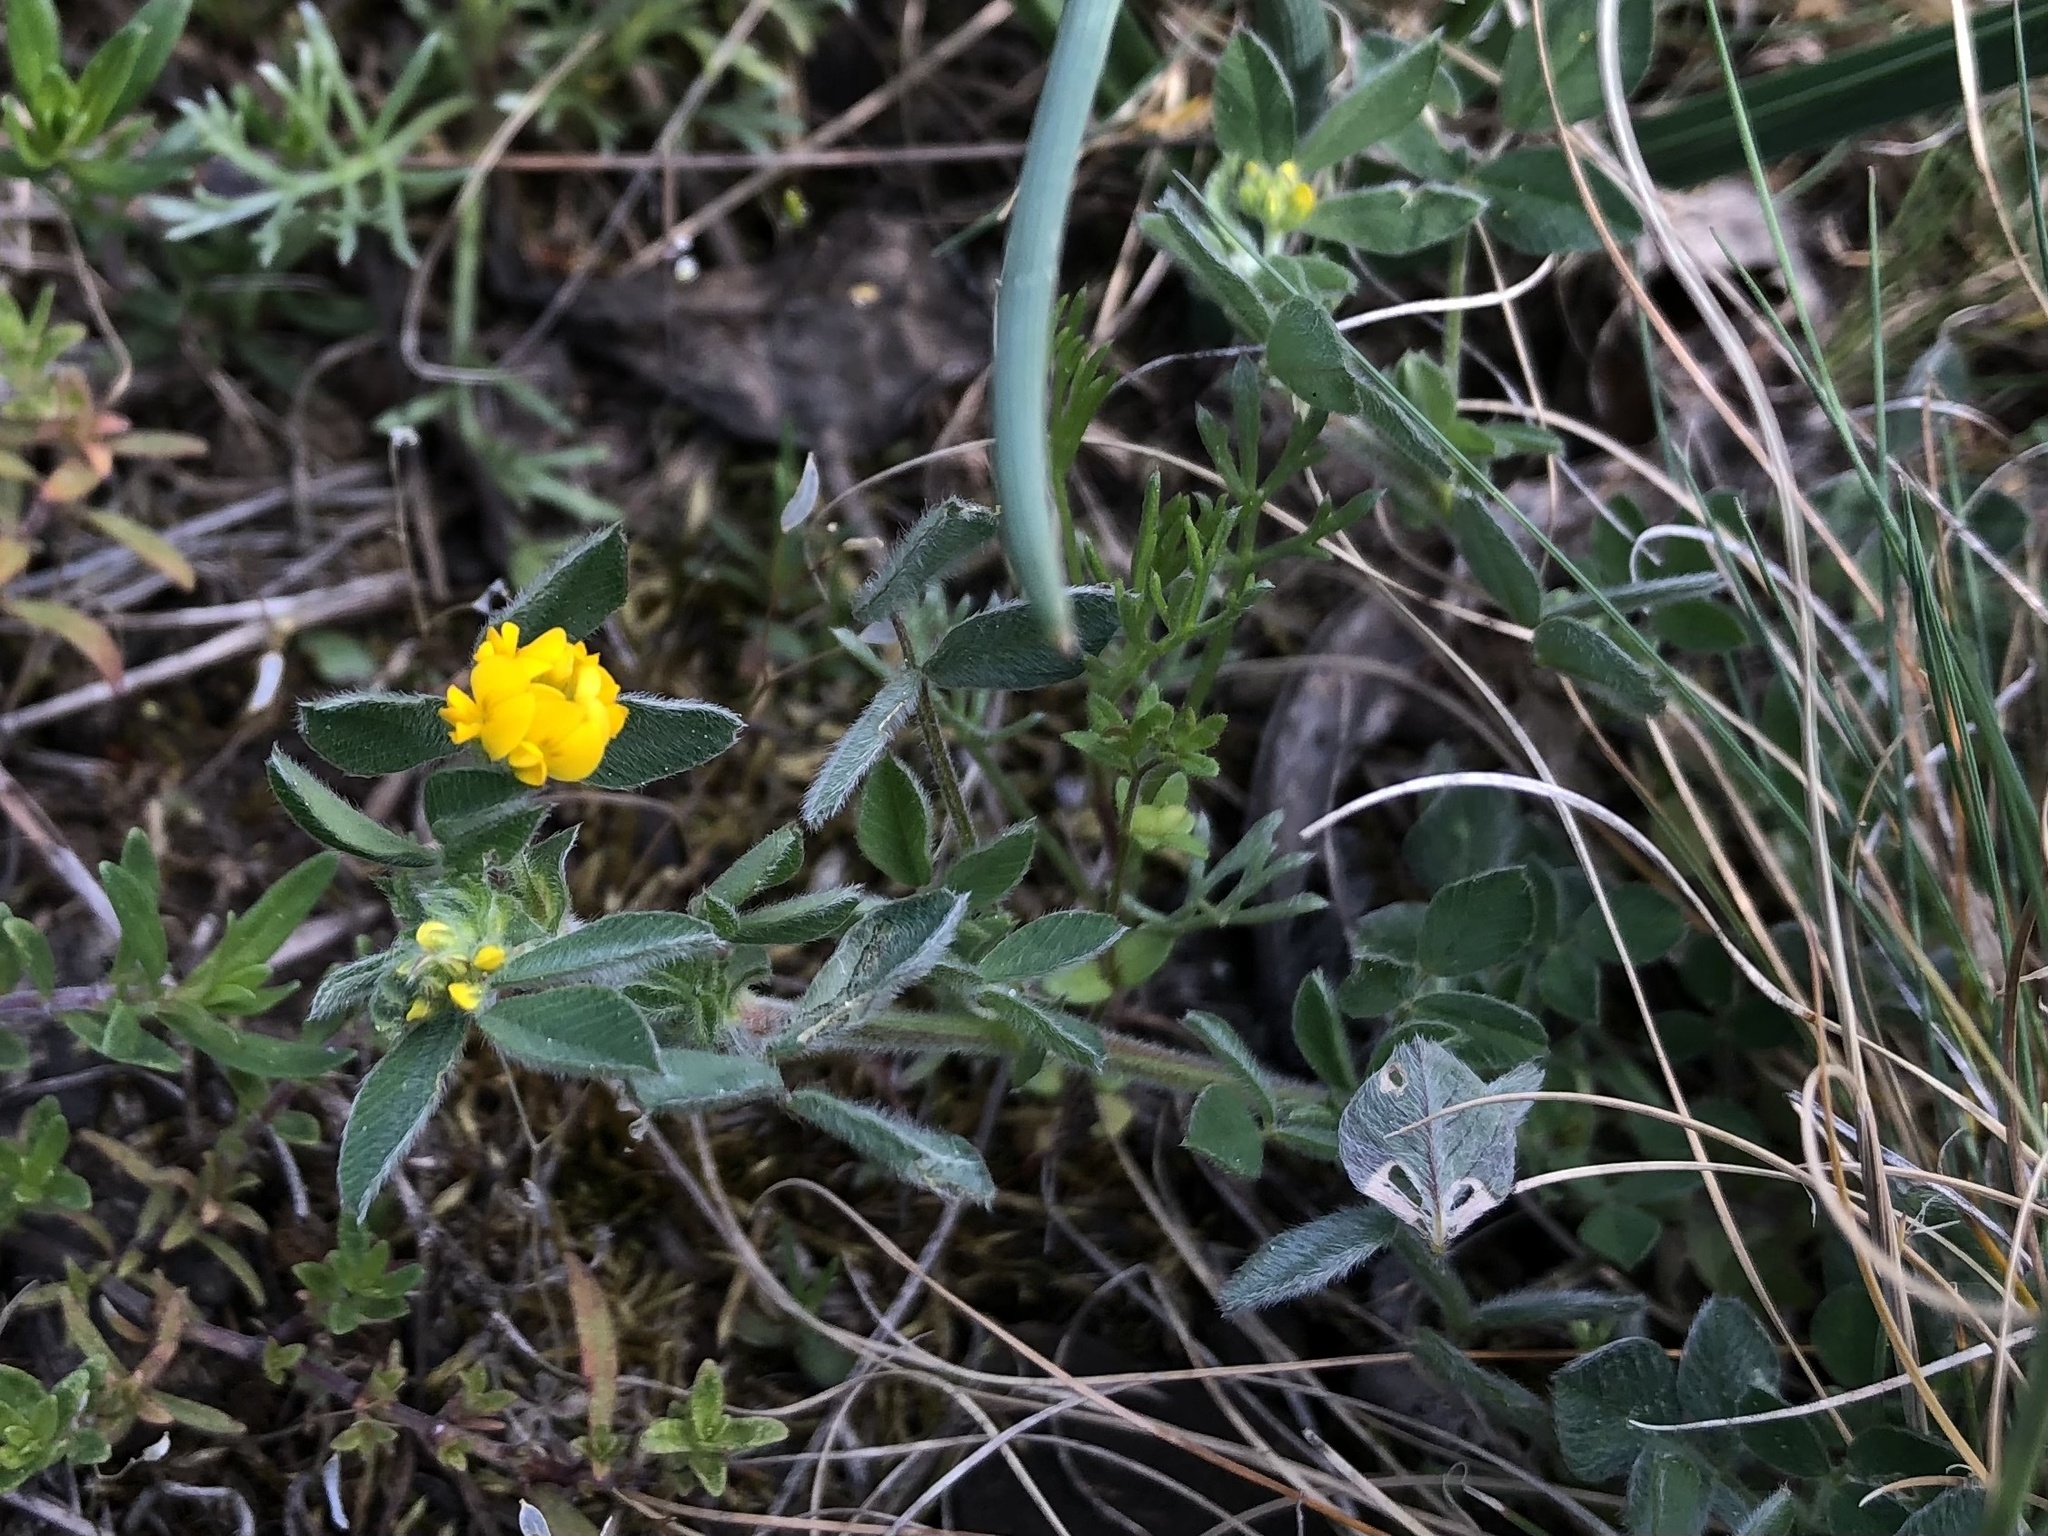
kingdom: Plantae
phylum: Tracheophyta
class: Magnoliopsida
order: Fabales
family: Fabaceae
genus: Medicago
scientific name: Medicago minima
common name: Little bur-clover
